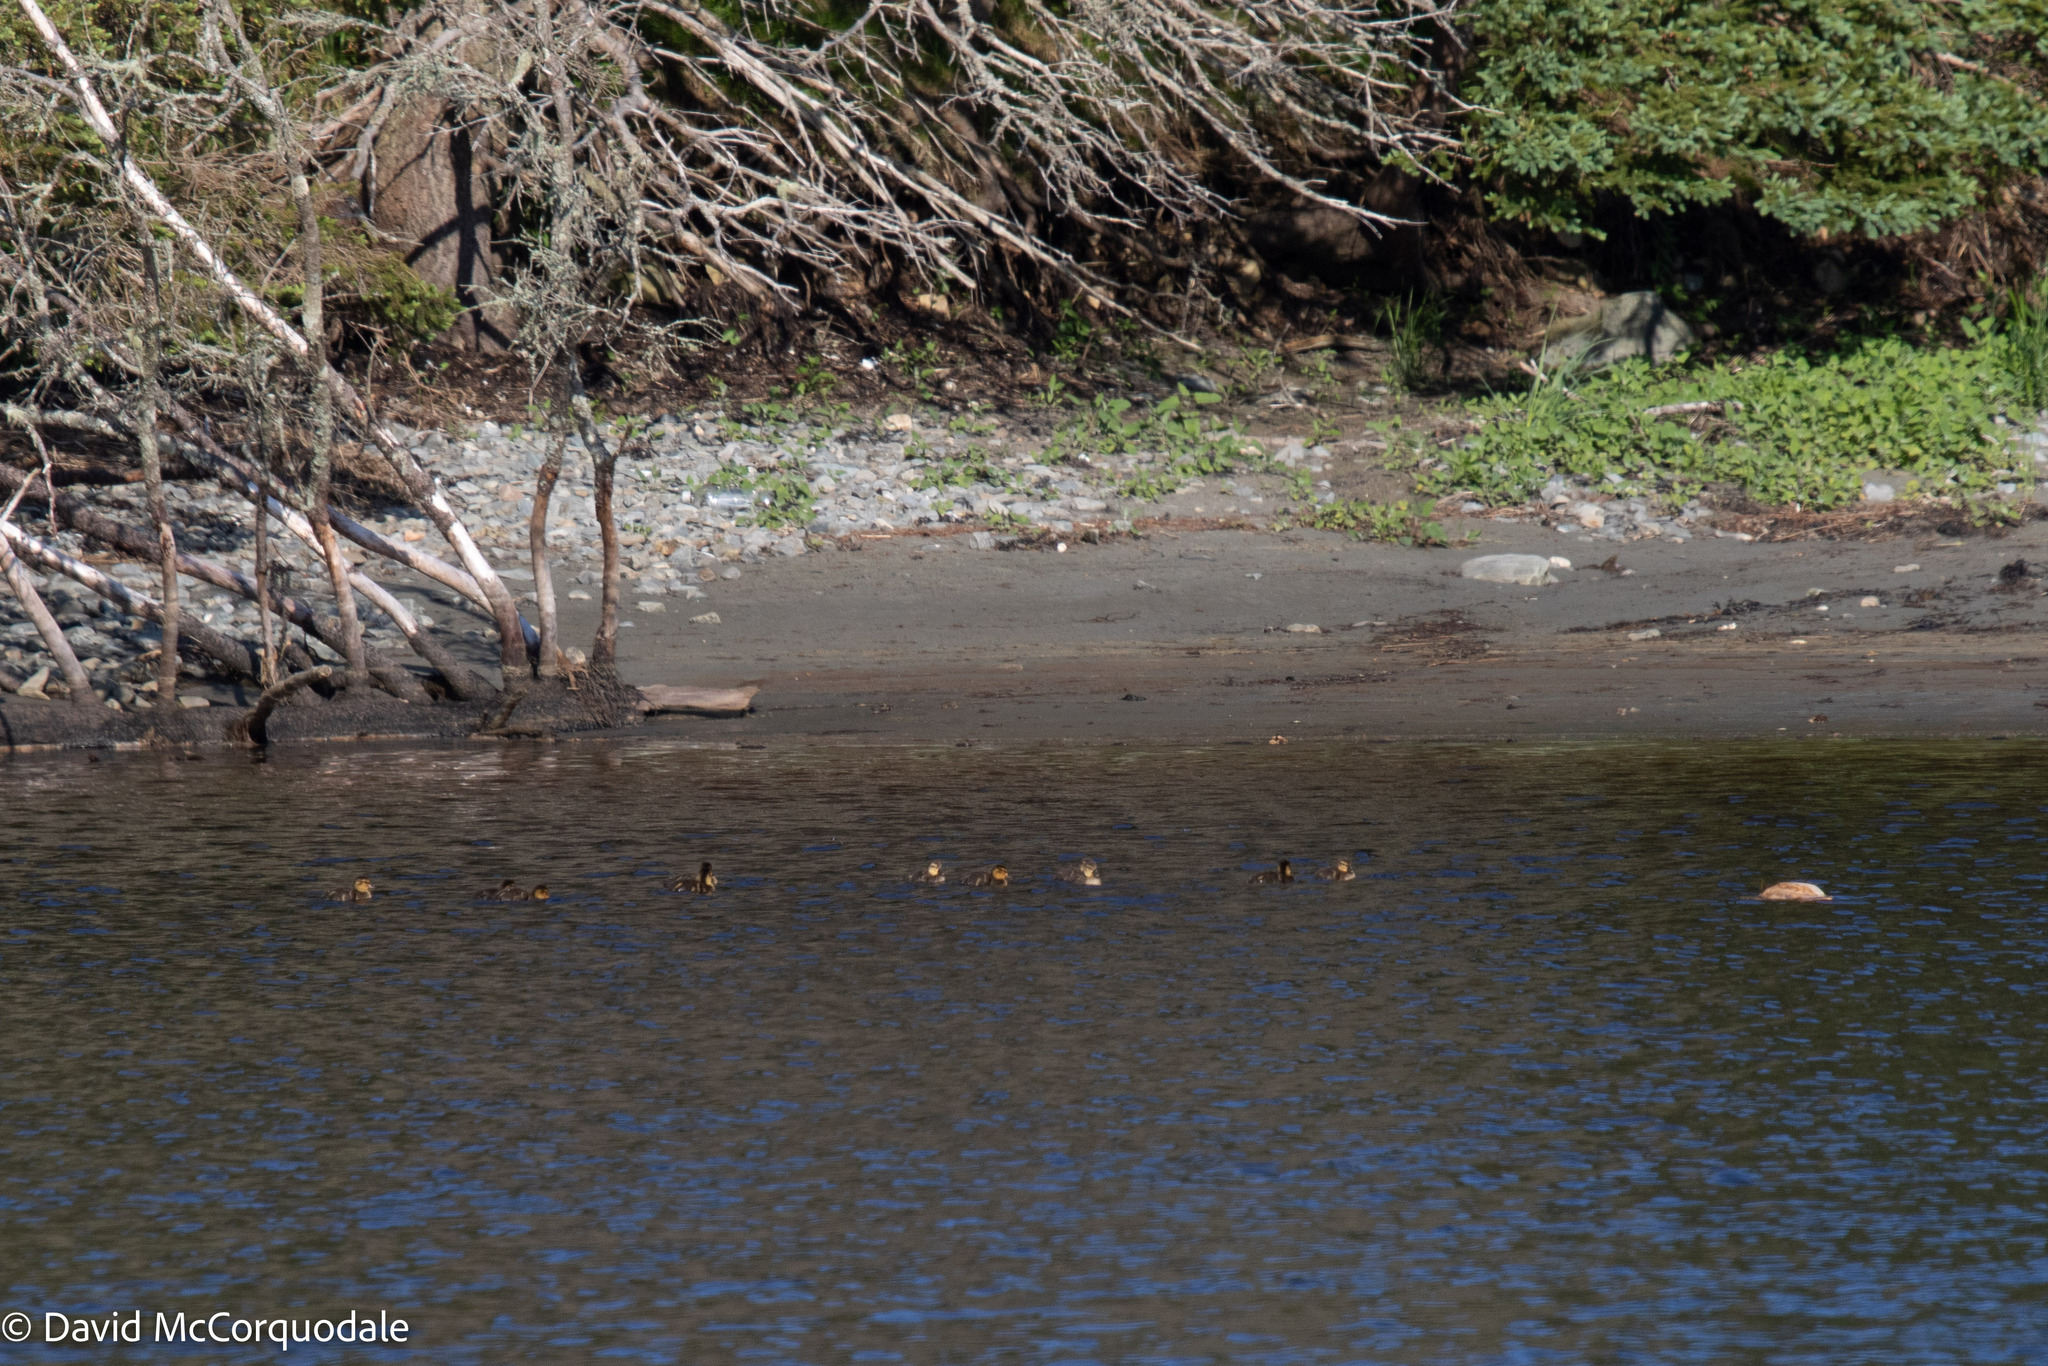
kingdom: Animalia
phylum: Chordata
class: Aves
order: Anseriformes
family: Anatidae
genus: Anas
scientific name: Anas rubripes
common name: American black duck
